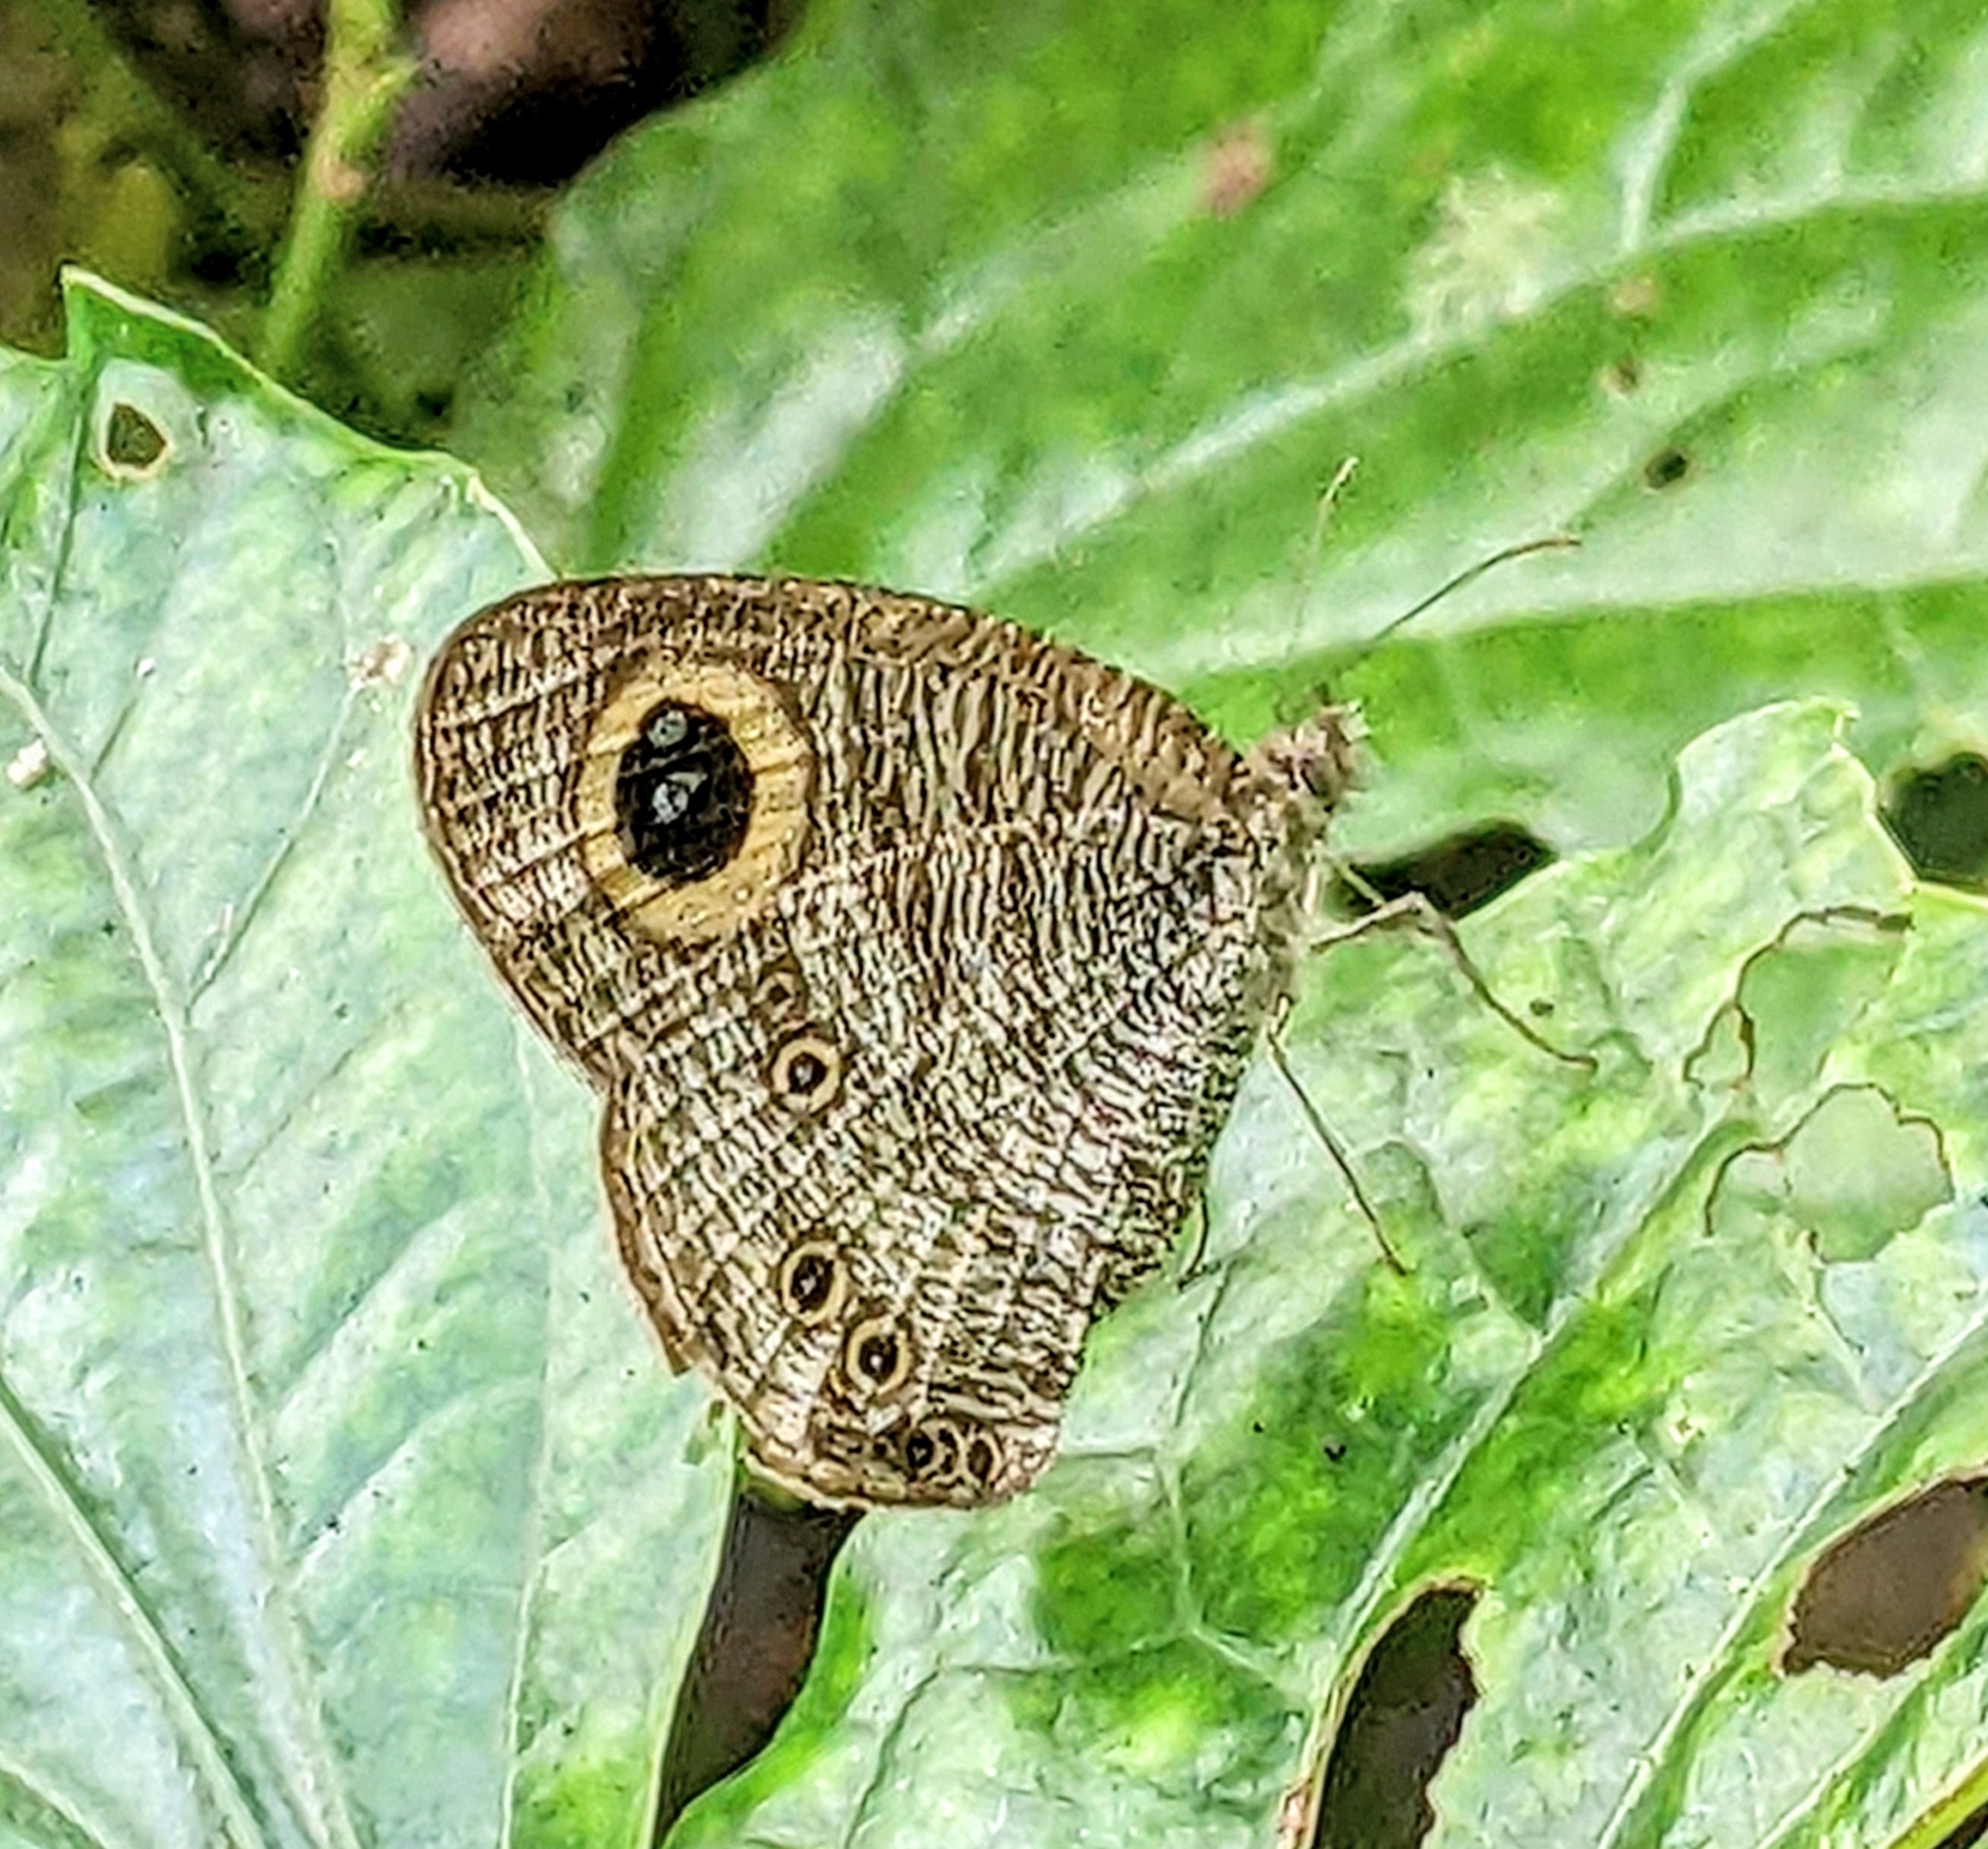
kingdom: Animalia
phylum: Arthropoda
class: Insecta
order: Lepidoptera
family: Nymphalidae
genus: Ypthima
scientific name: Ypthima baldus
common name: Common five-ring
